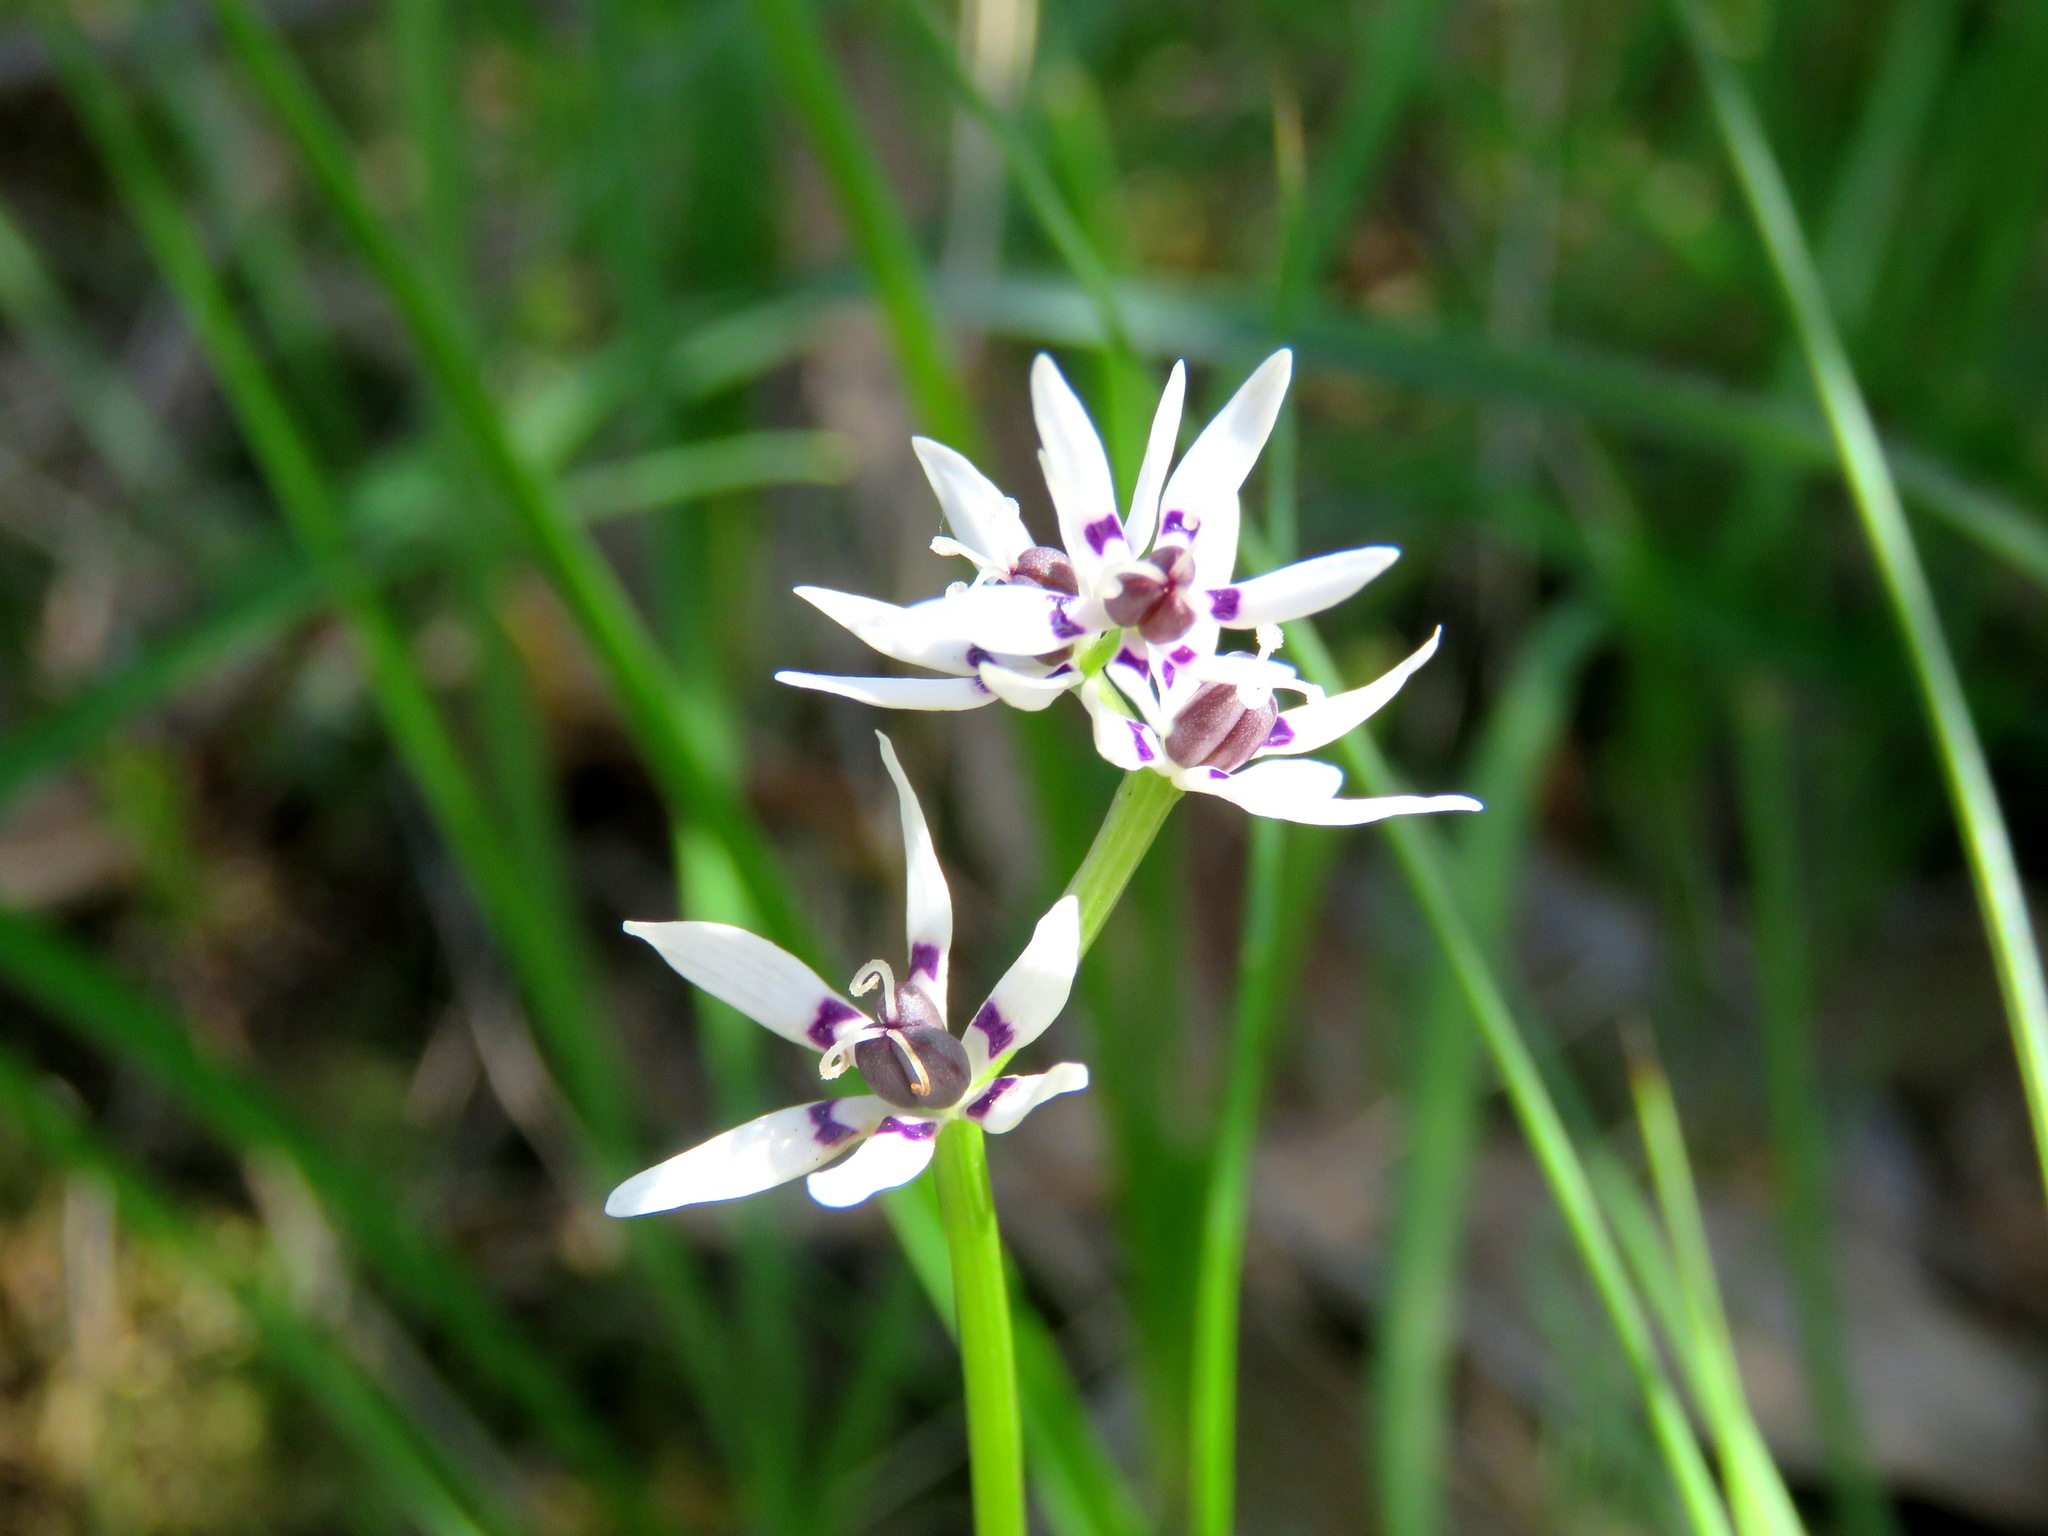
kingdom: Plantae
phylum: Tracheophyta
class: Liliopsida
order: Liliales
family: Colchicaceae
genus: Wurmbea
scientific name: Wurmbea dioica
